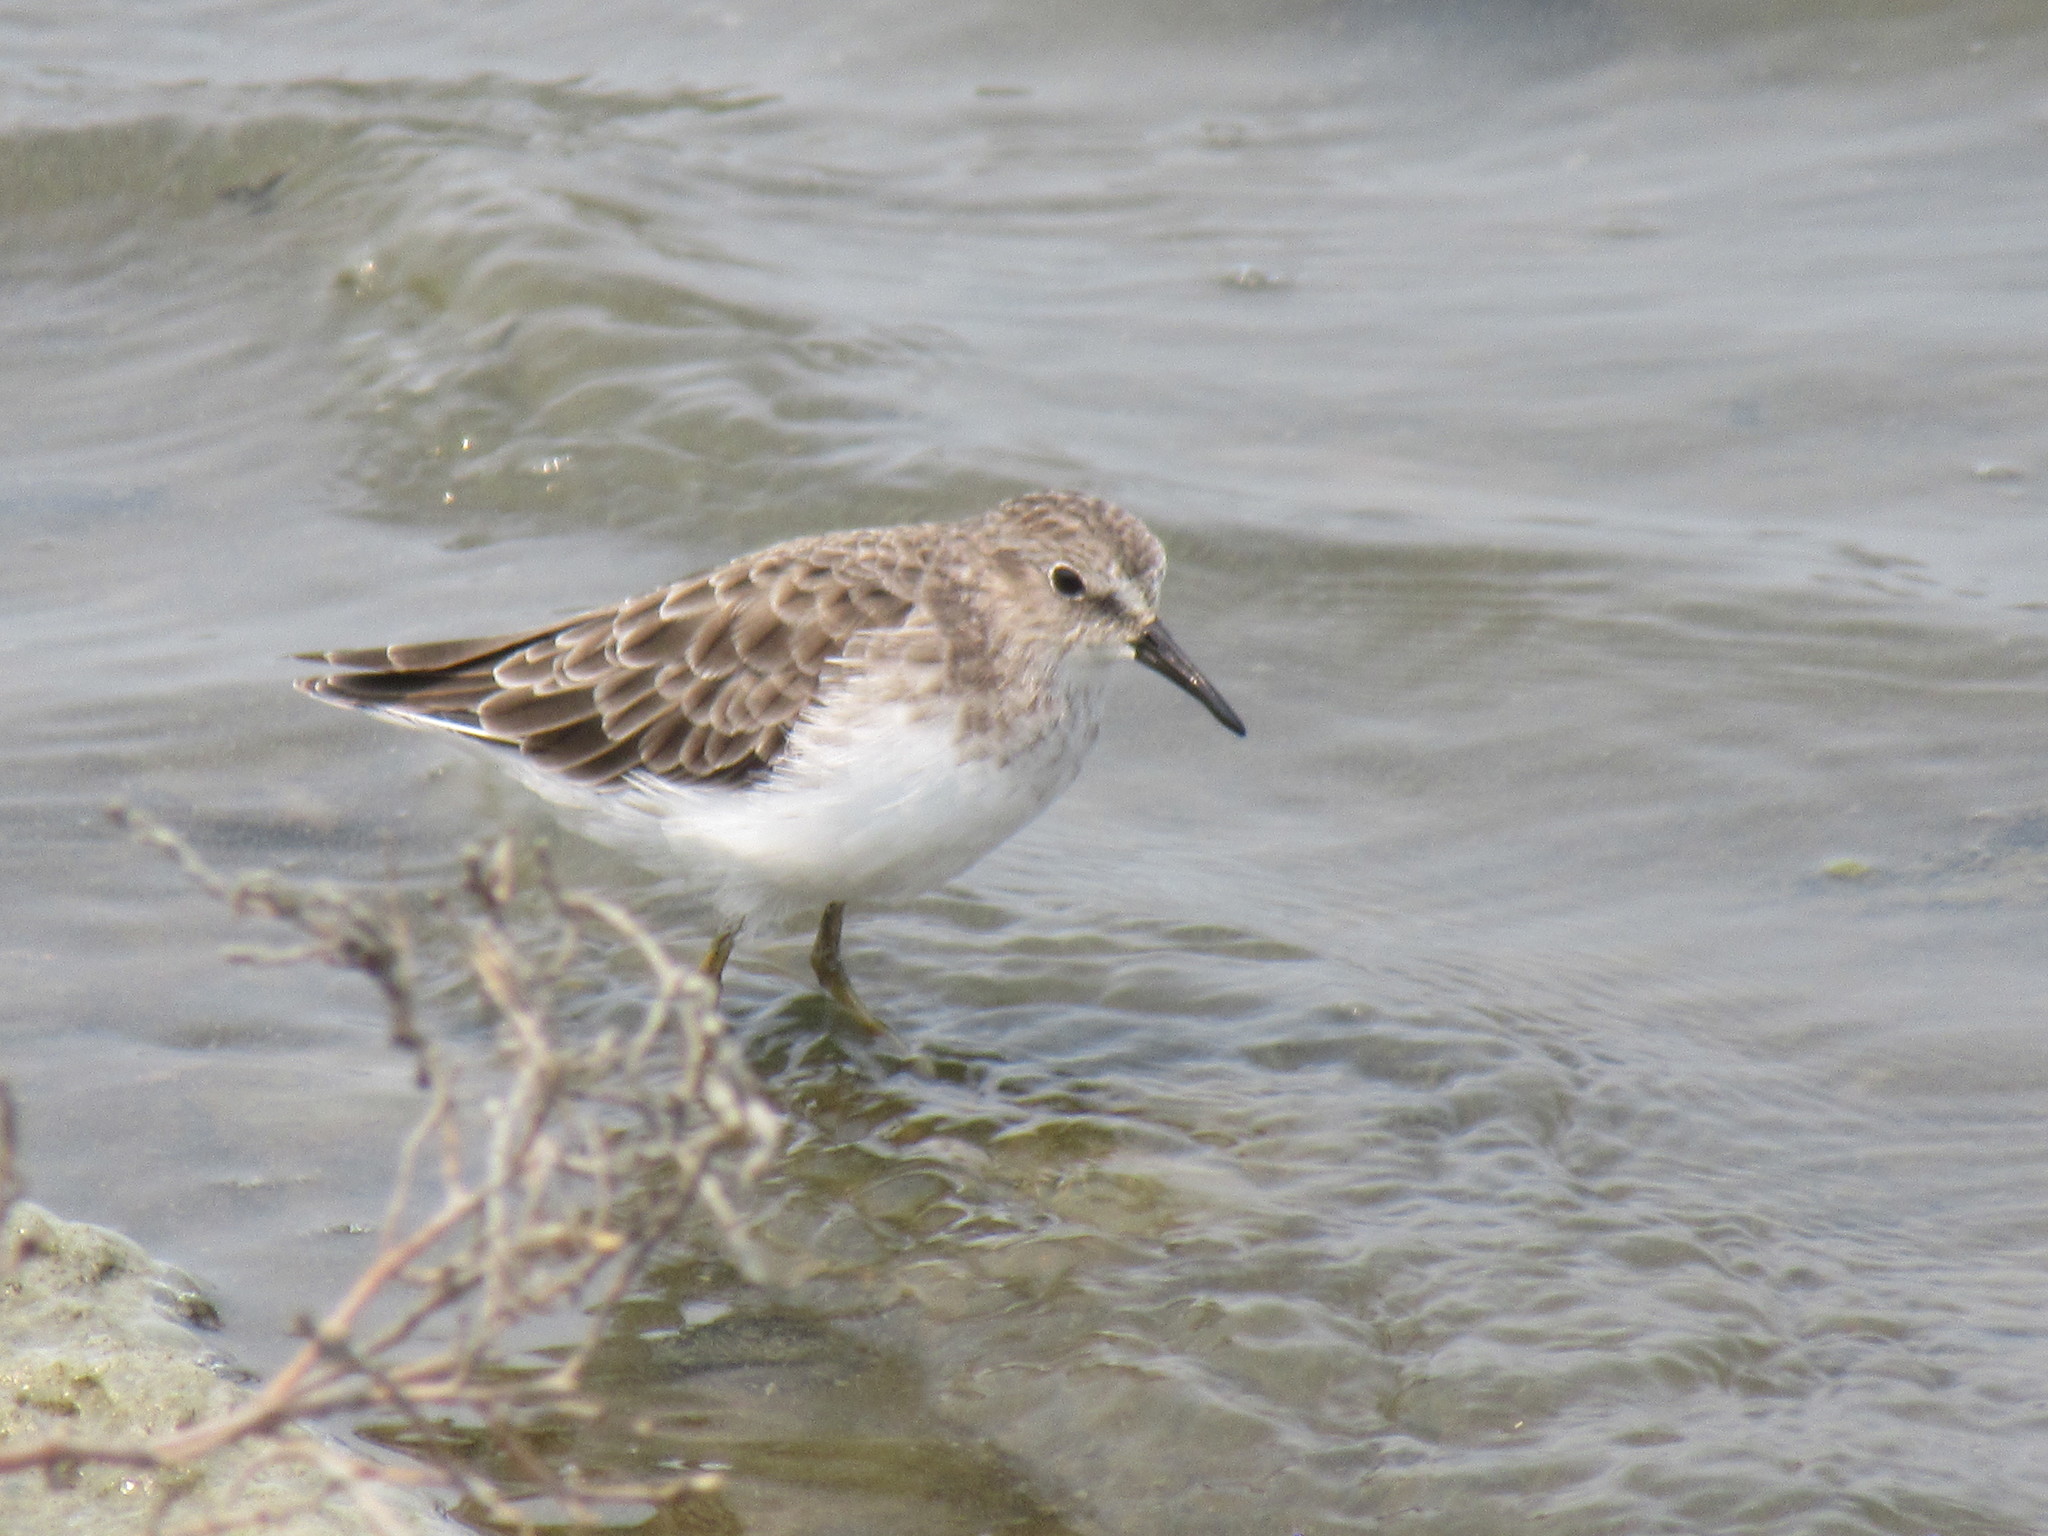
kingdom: Animalia
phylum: Chordata
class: Aves
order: Charadriiformes
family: Scolopacidae
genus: Calidris
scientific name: Calidris minutilla
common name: Least sandpiper
